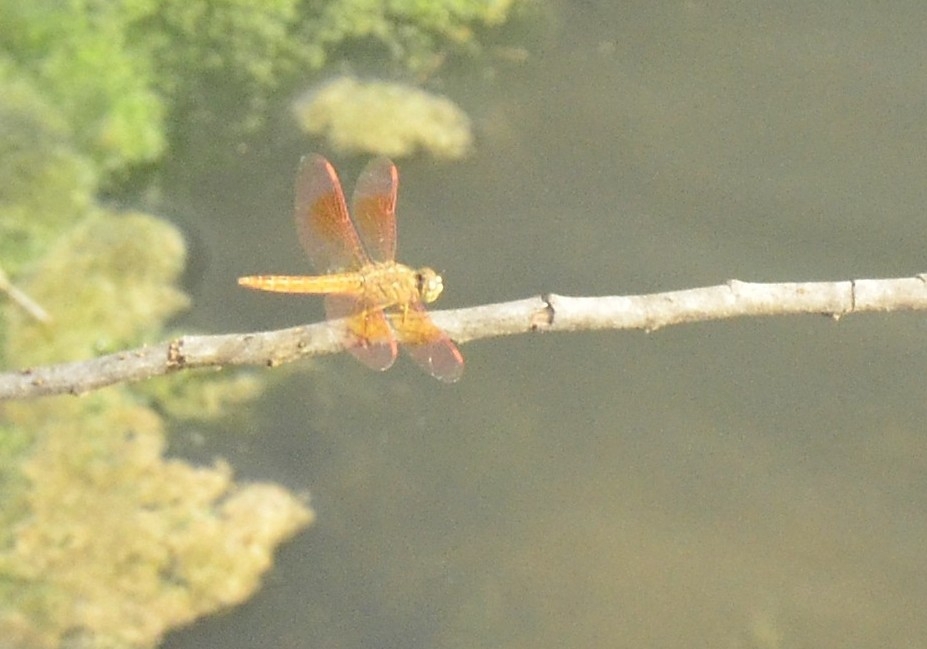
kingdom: Animalia
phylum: Arthropoda
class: Insecta
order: Odonata
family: Libellulidae
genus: Brachythemis
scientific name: Brachythemis contaminata
